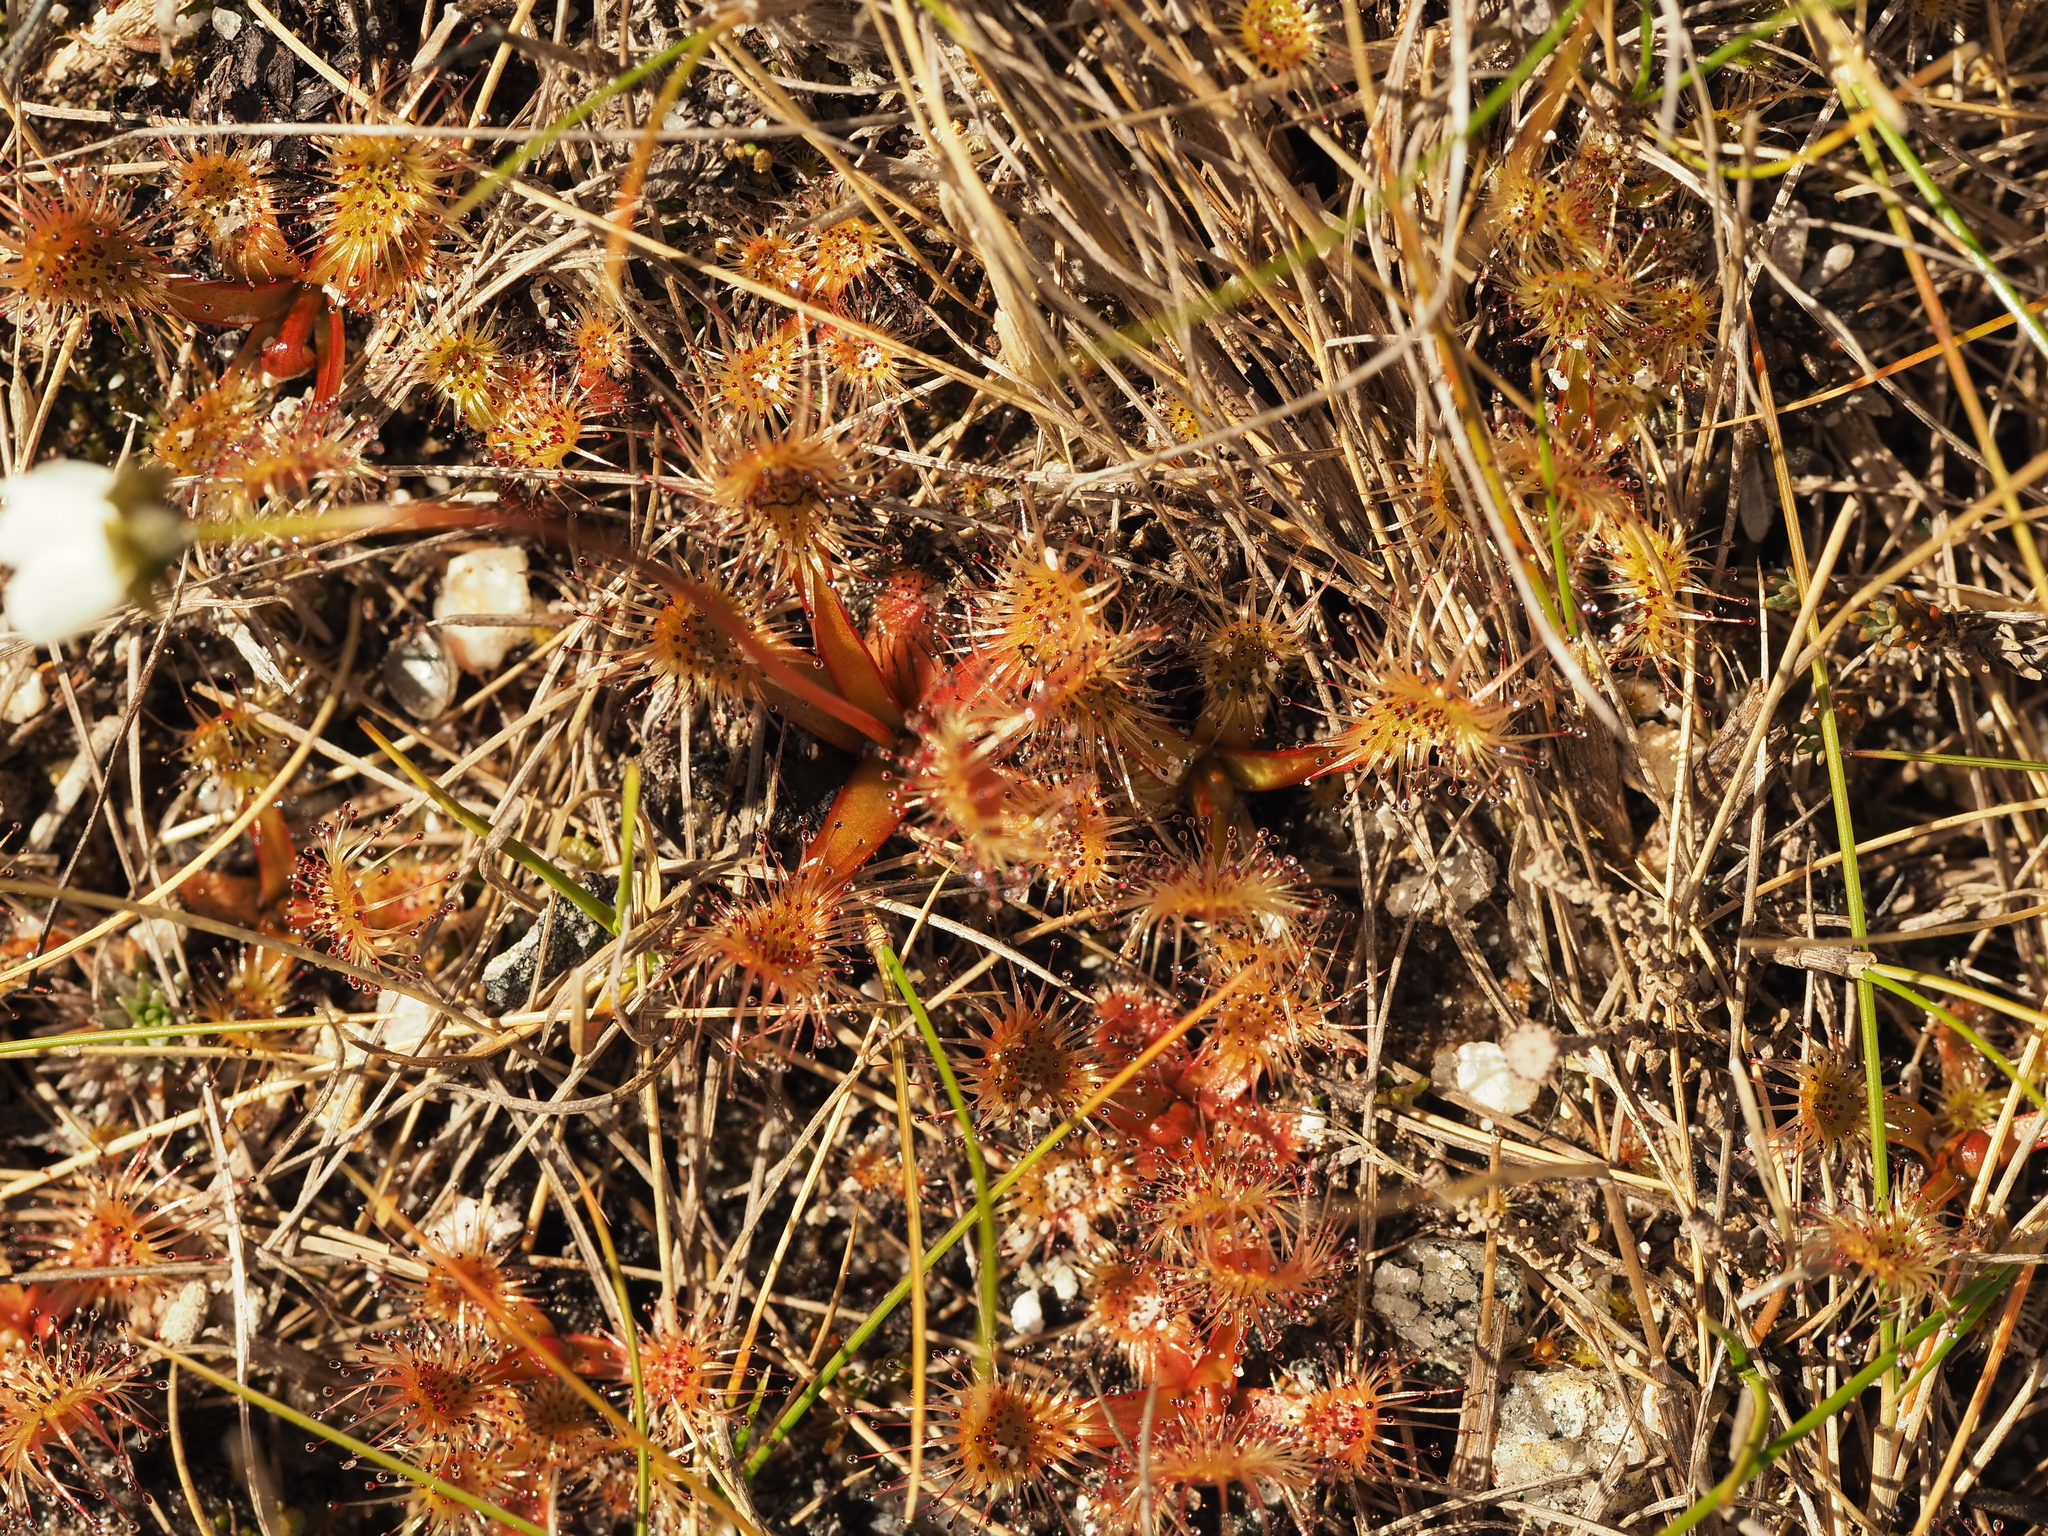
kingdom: Plantae
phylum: Tracheophyta
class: Magnoliopsida
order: Caryophyllales
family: Droseraceae
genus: Drosera
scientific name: Drosera stenopetala
